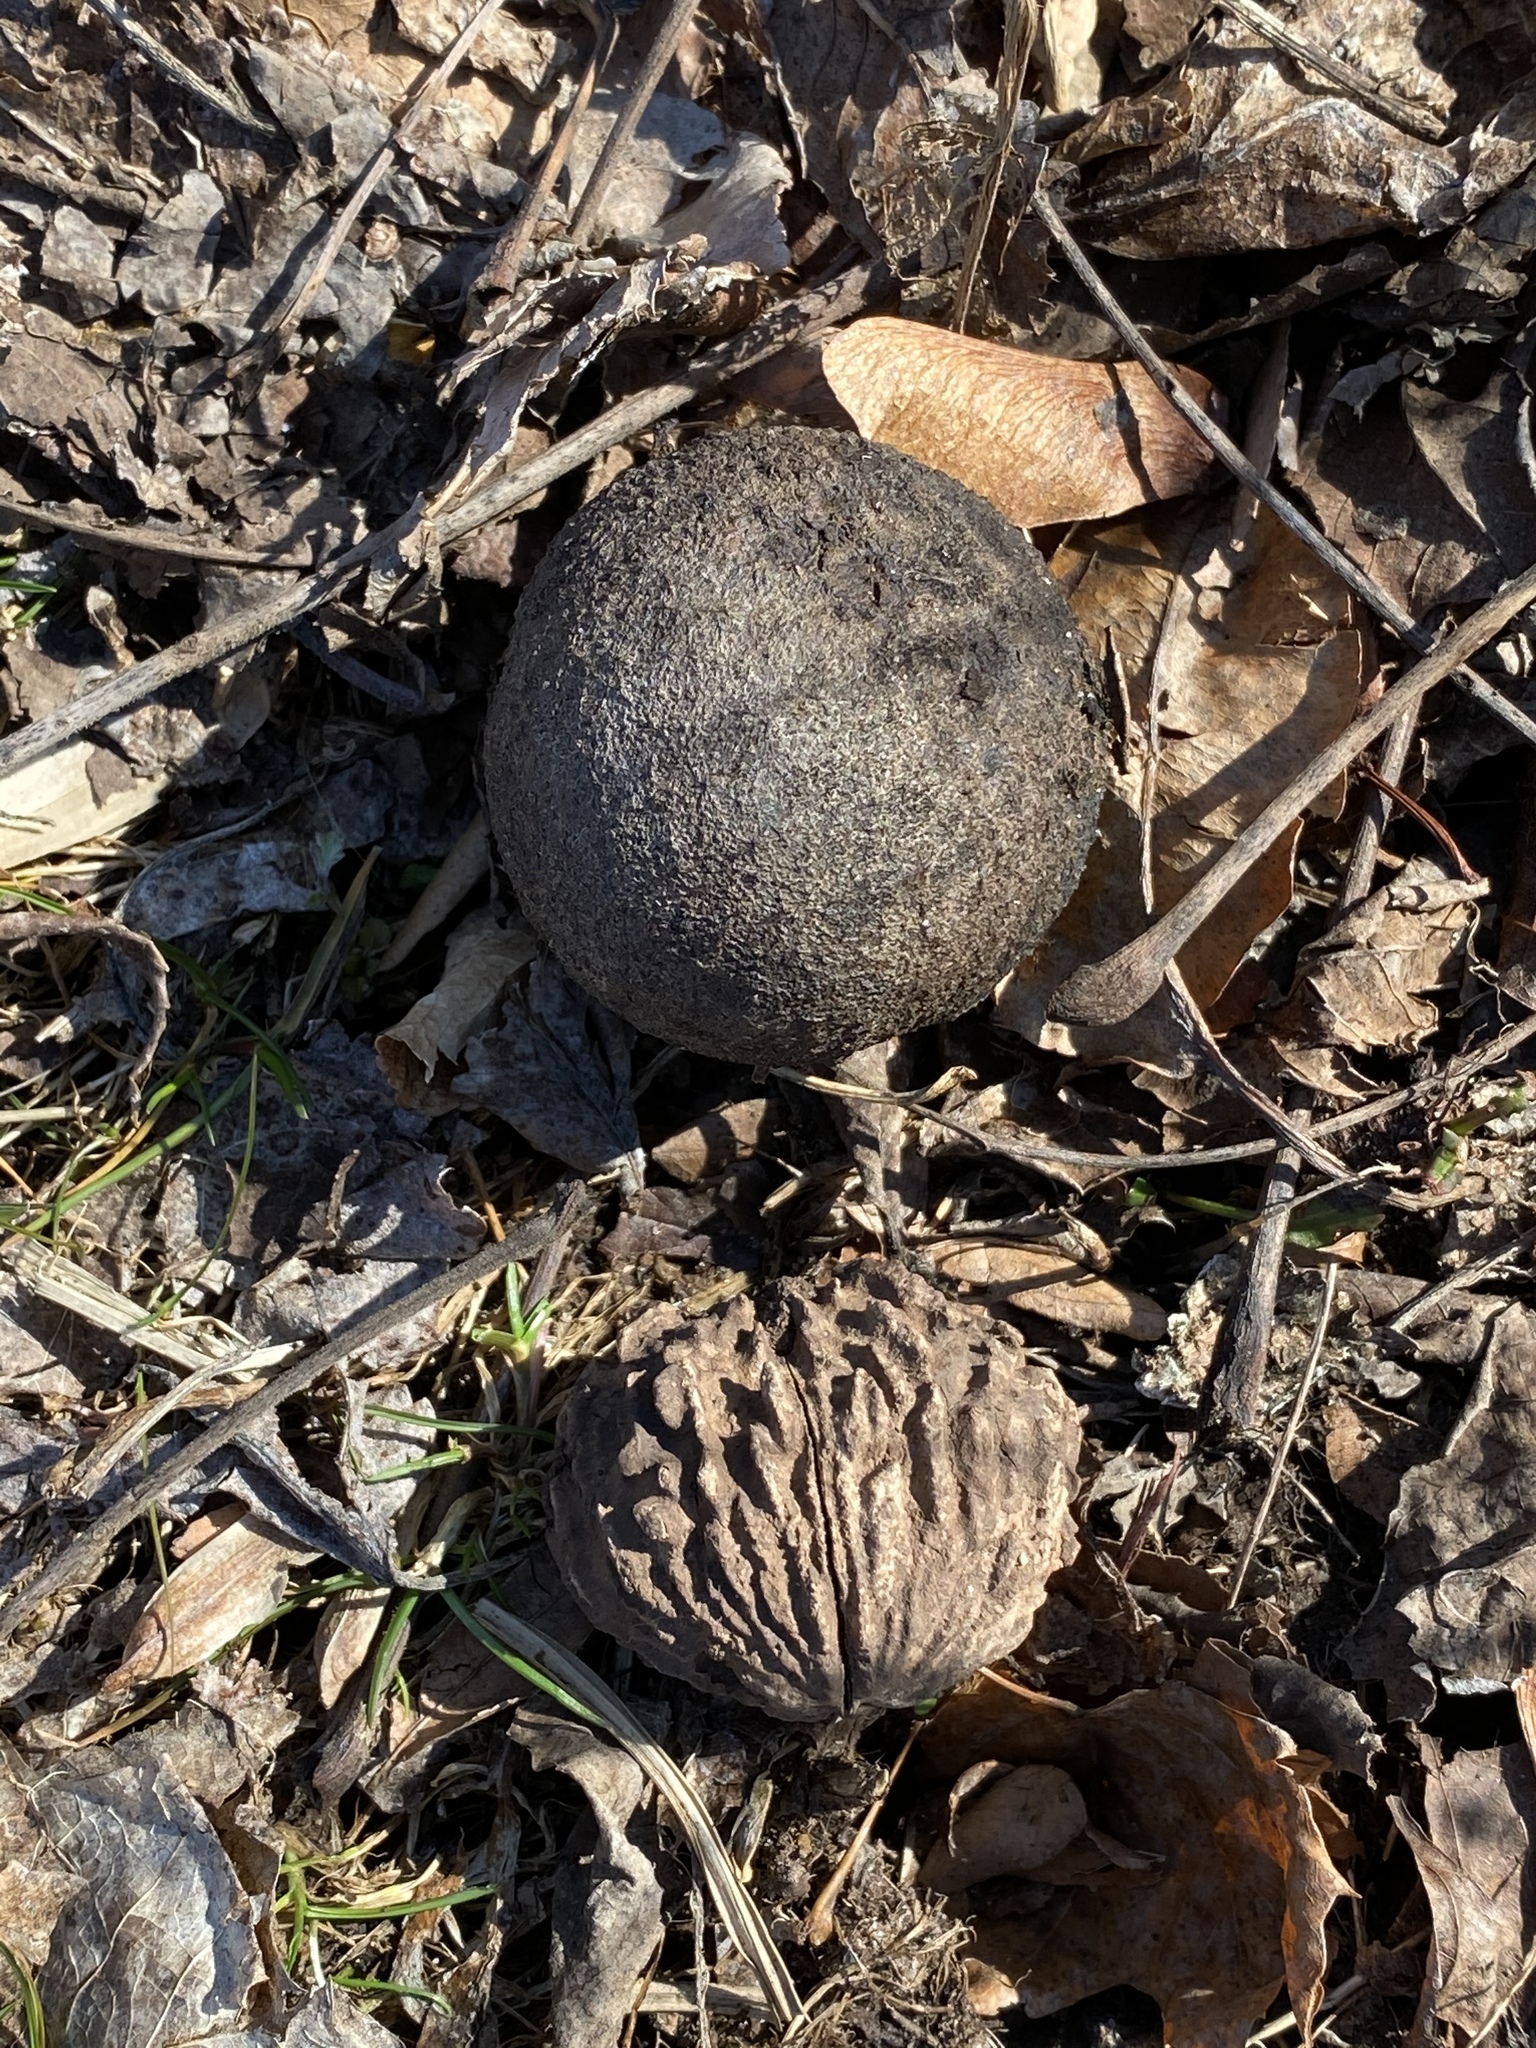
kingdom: Plantae
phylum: Tracheophyta
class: Magnoliopsida
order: Fagales
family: Juglandaceae
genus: Juglans
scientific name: Juglans nigra
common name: Black walnut
